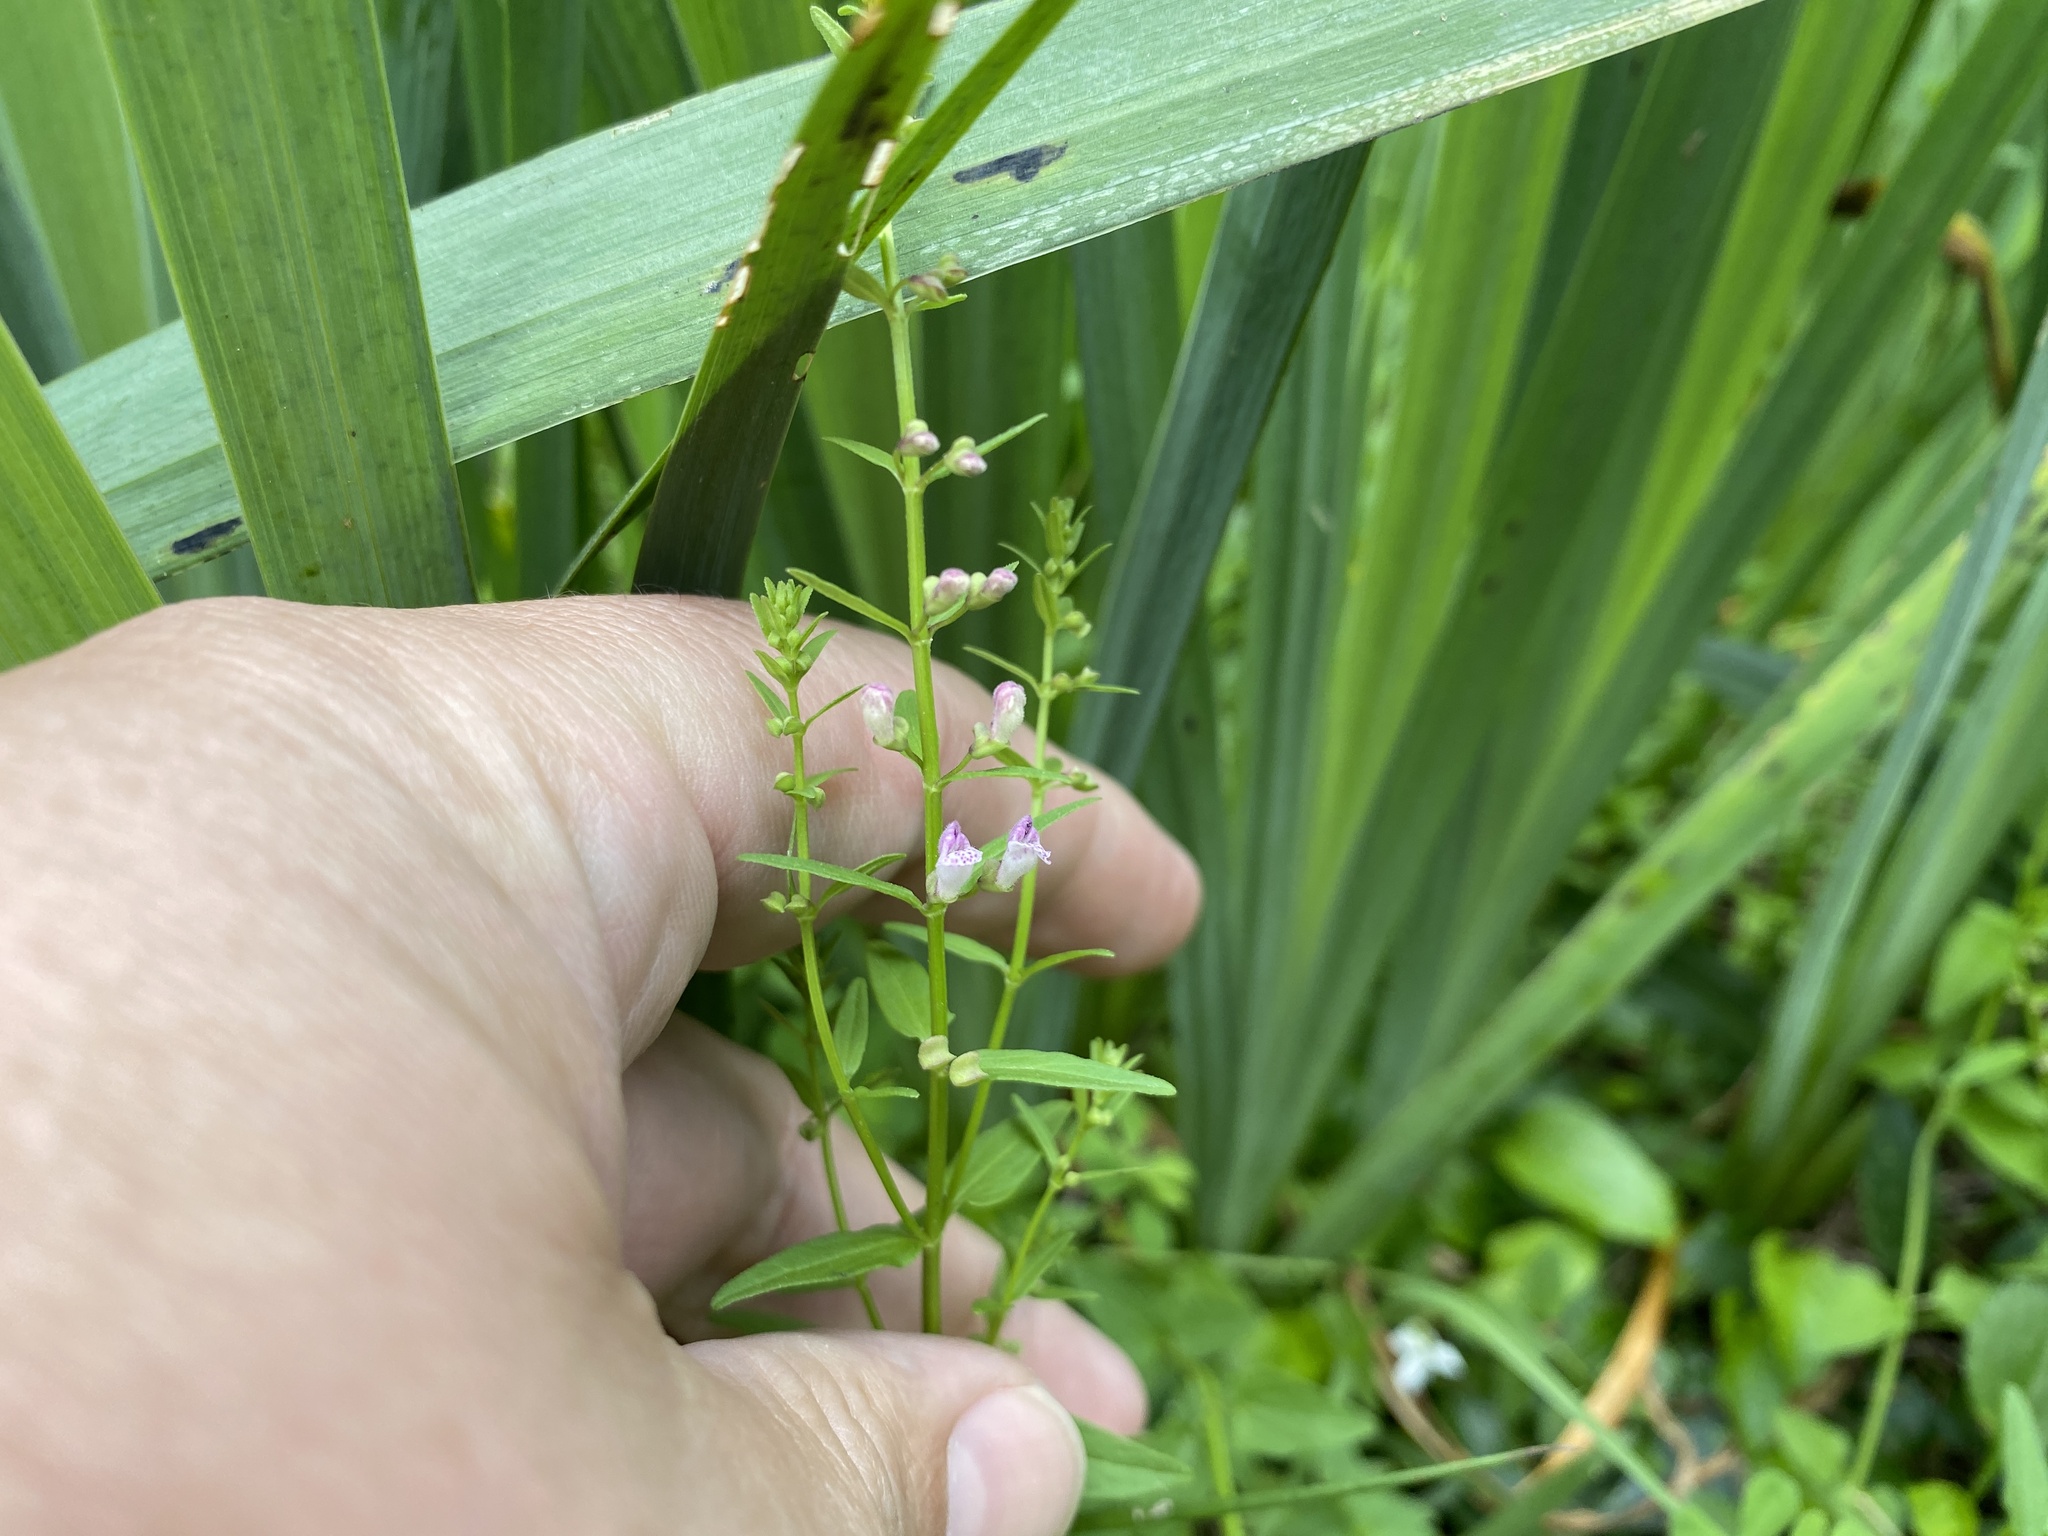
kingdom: Plantae
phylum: Tracheophyta
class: Magnoliopsida
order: Lamiales
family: Lamiaceae
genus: Scutellaria
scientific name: Scutellaria racemosa
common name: South american skullcap
